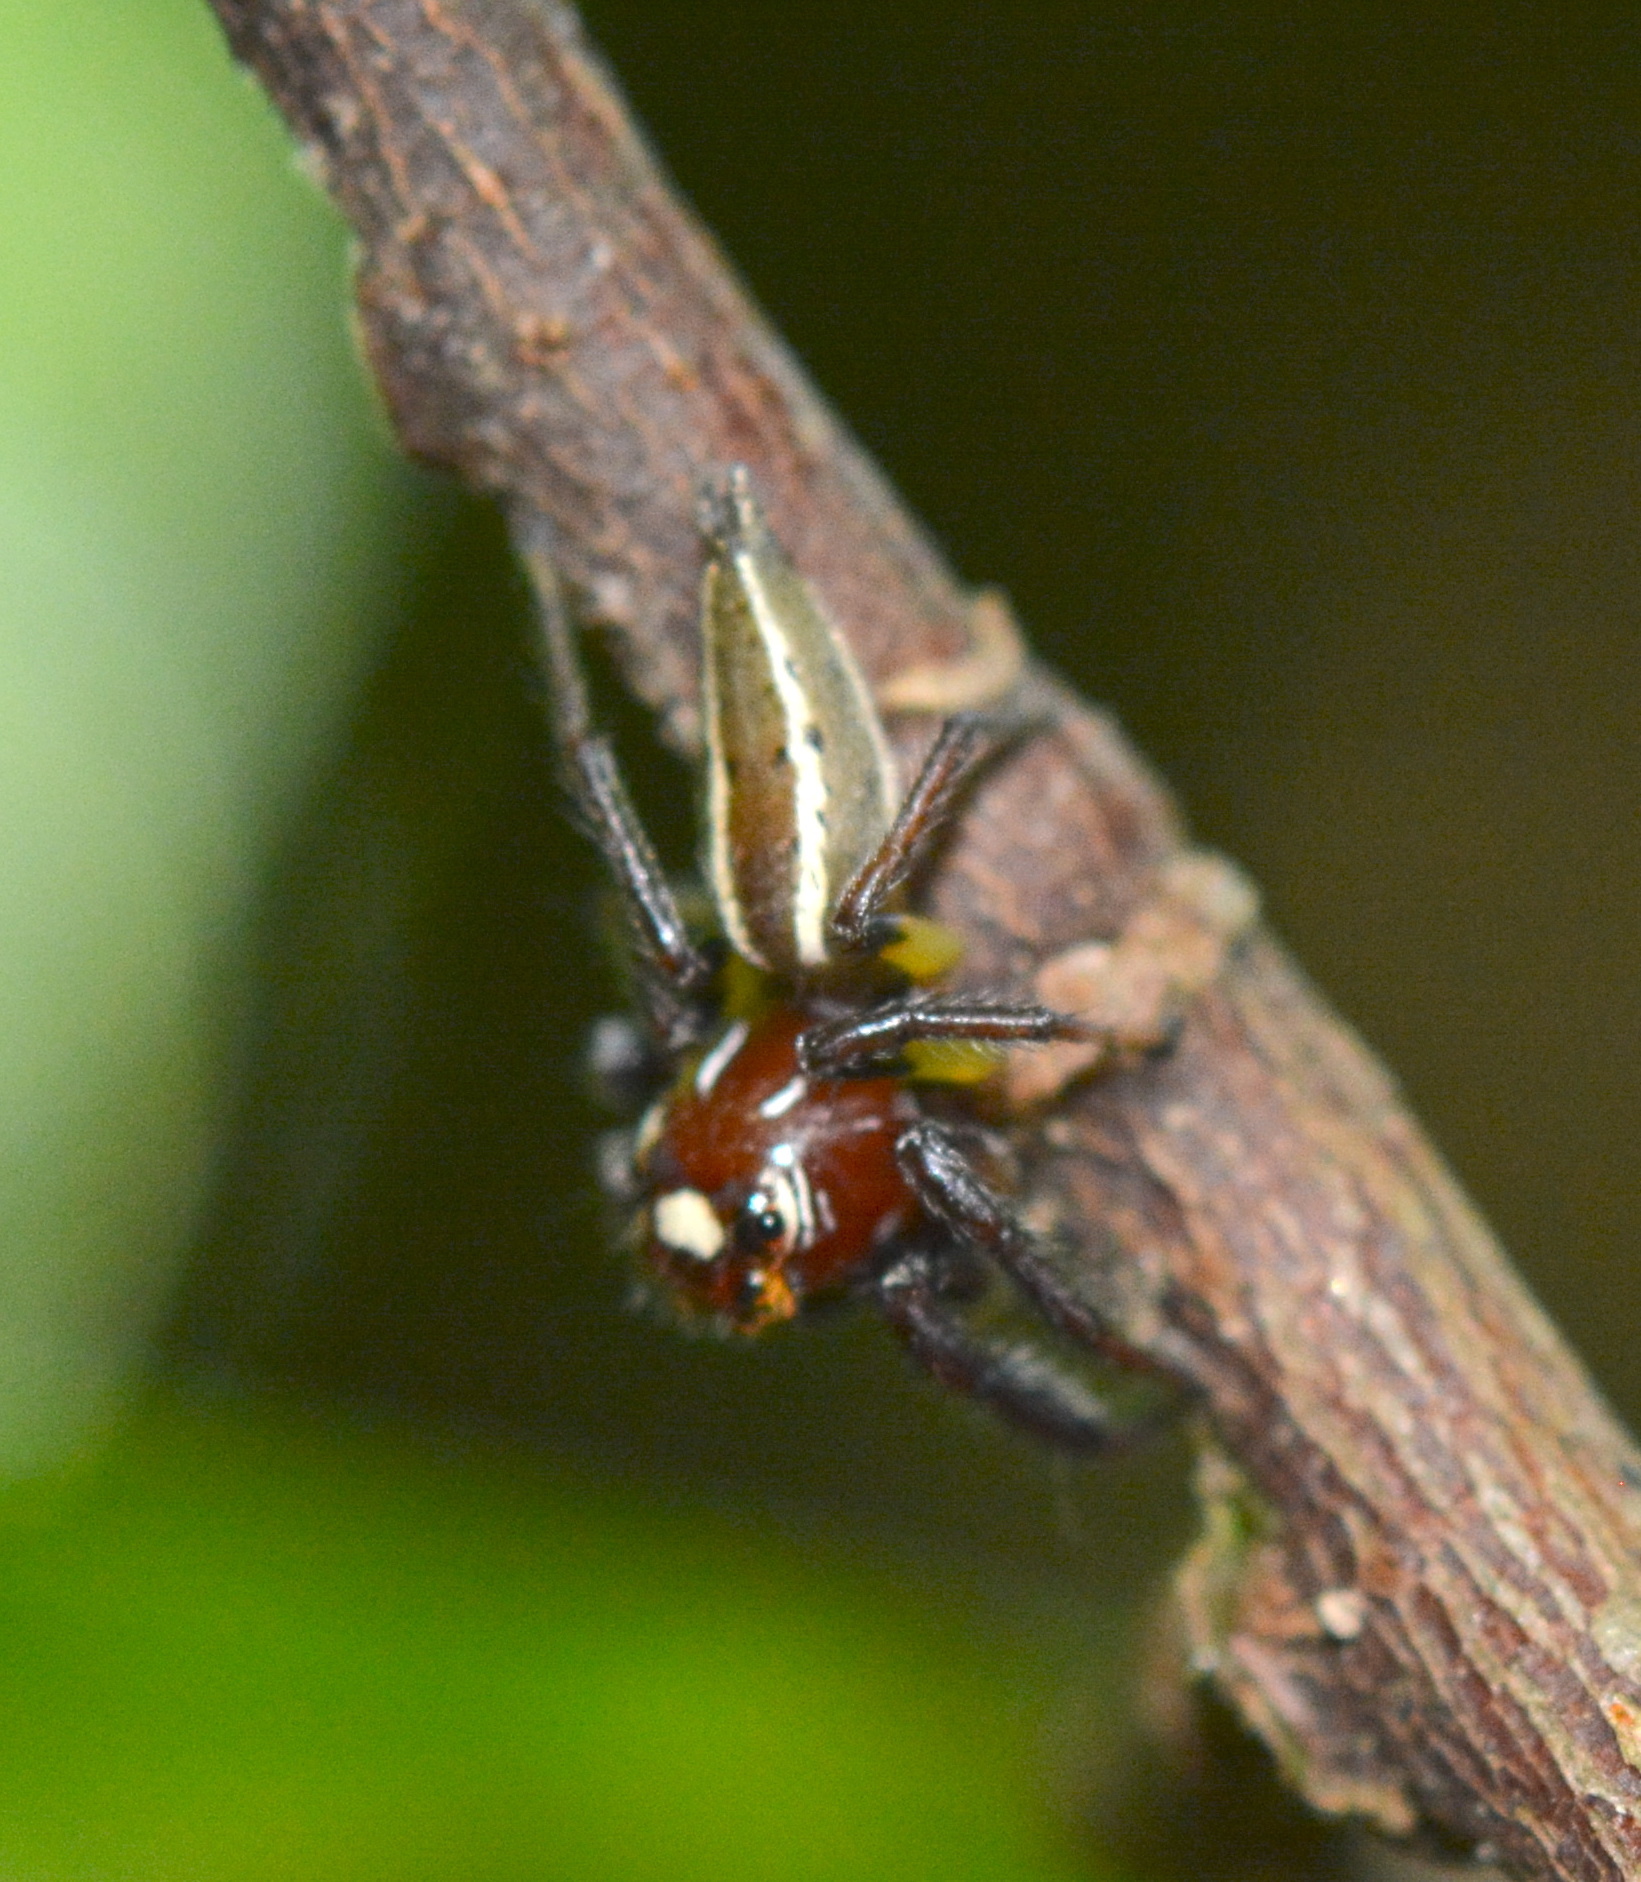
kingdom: Animalia
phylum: Arthropoda
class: Arachnida
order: Araneae
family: Salticidae
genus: Colonus
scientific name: Colonus sylvanus
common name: Jumping spiders
